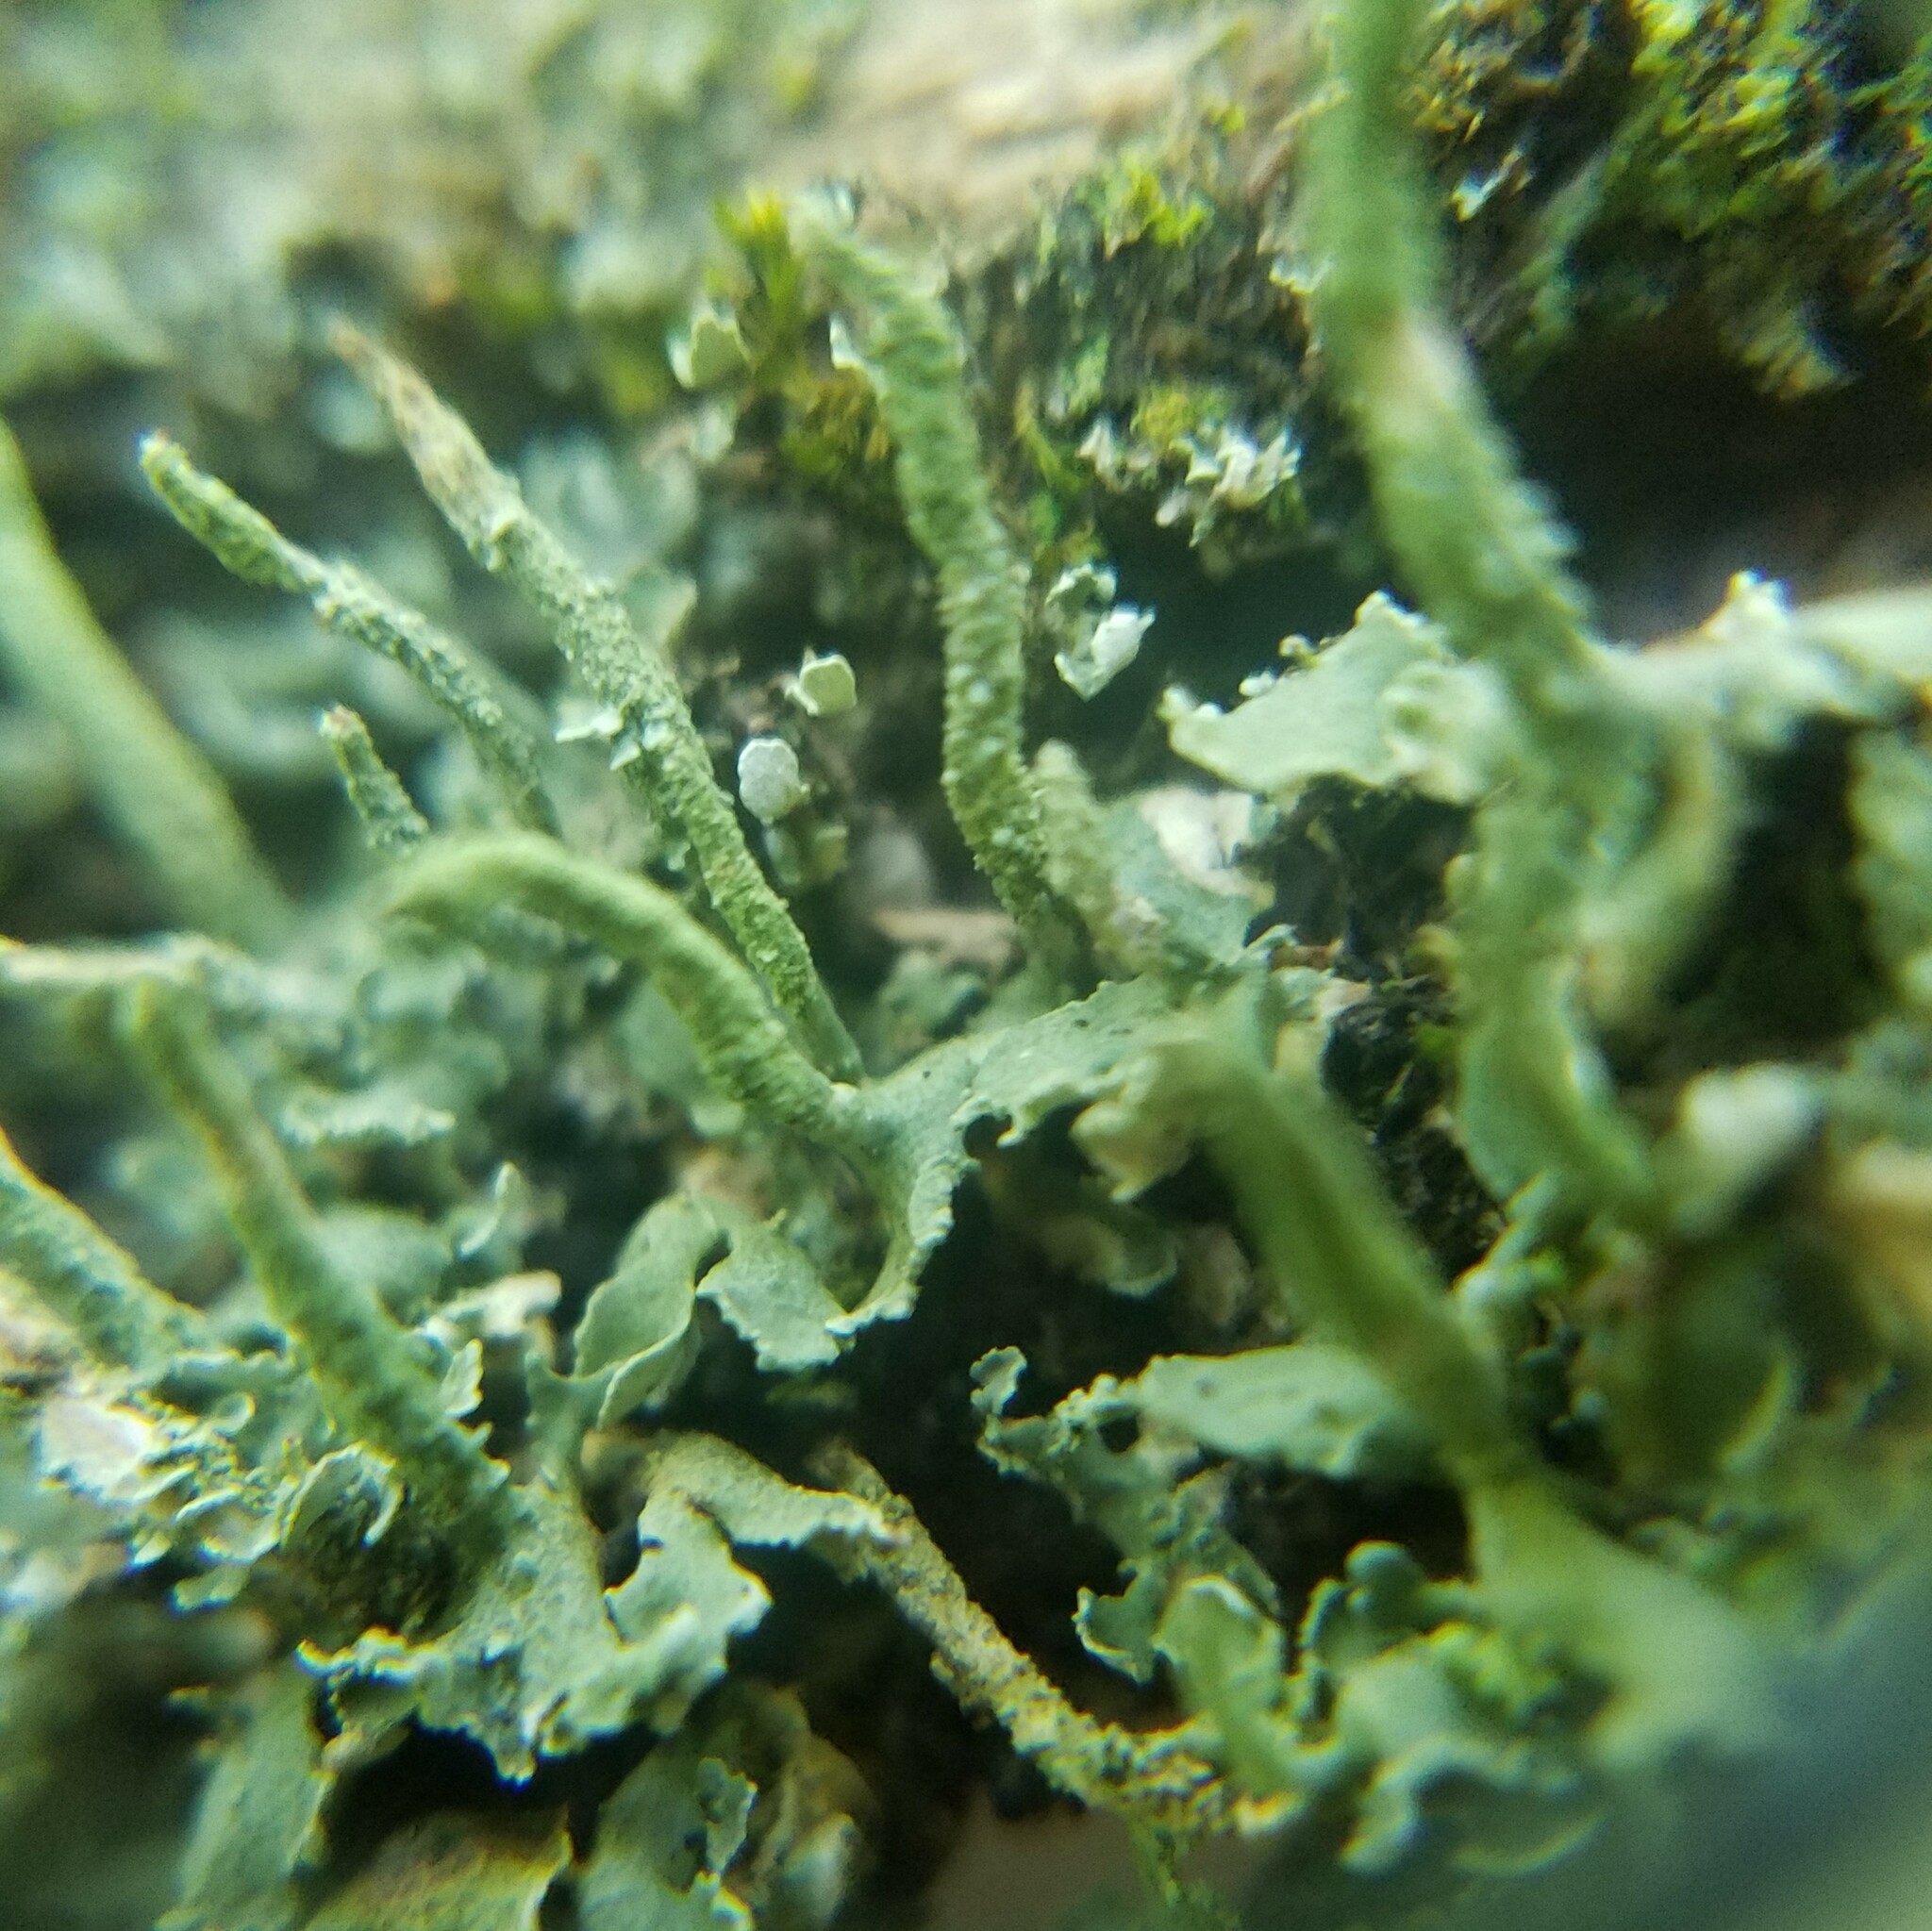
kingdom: Fungi
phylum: Ascomycota
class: Lecanoromycetes
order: Lecanorales
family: Cladoniaceae
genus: Cladonia
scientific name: Cladonia ochrochlora
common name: Smooth-footed powderhorn
